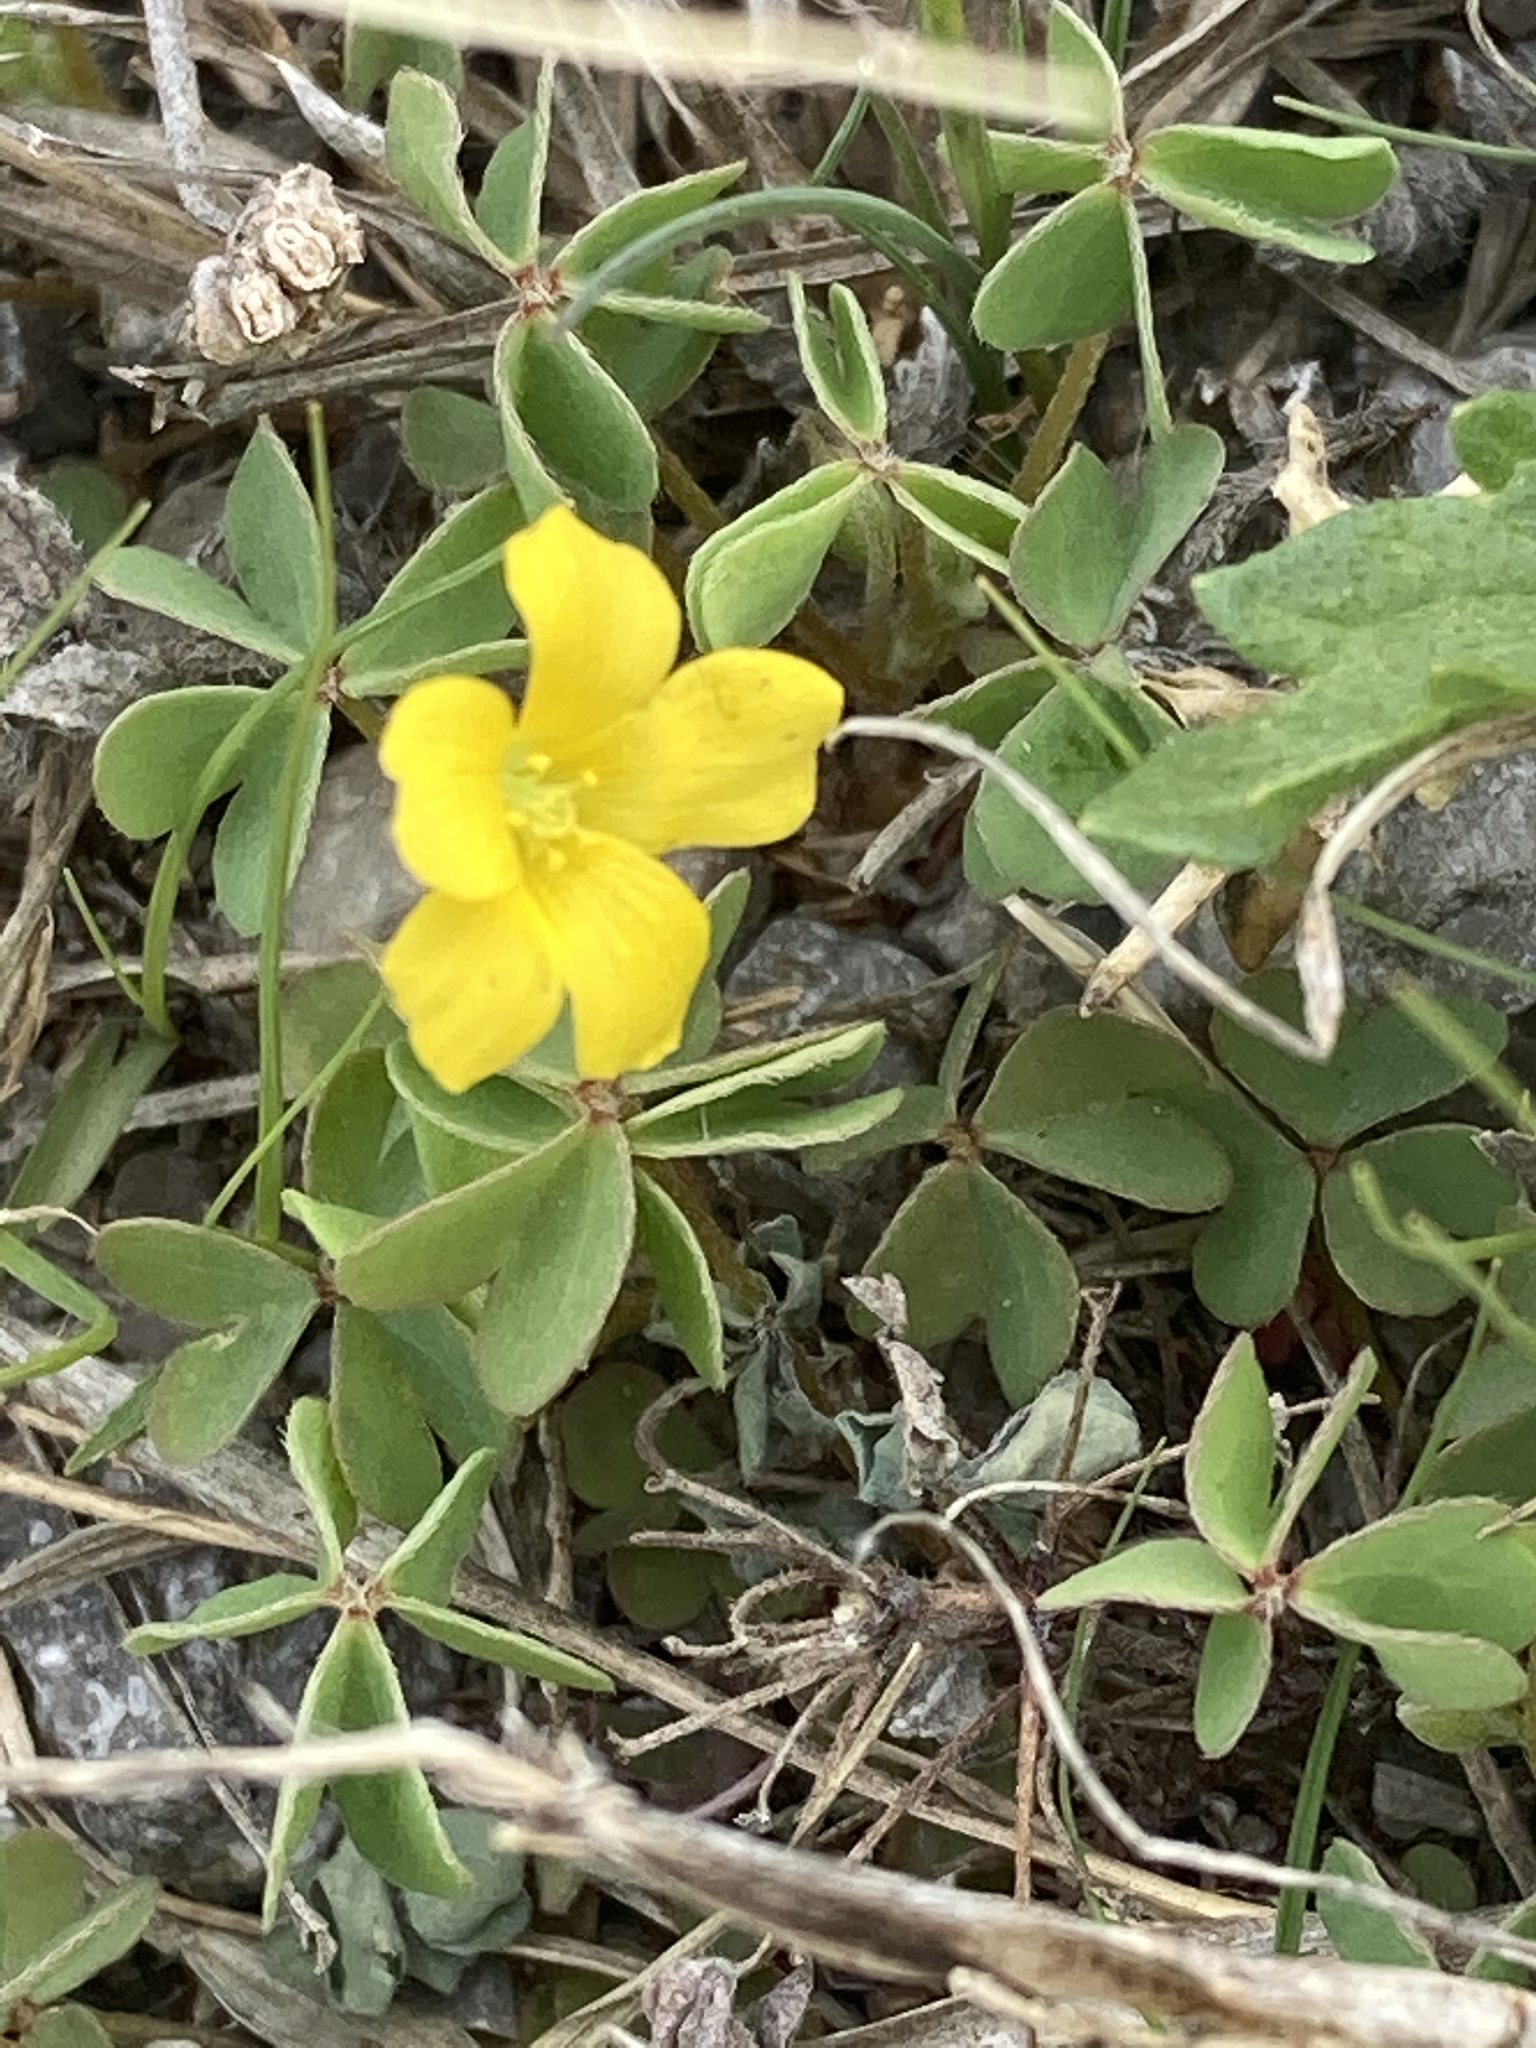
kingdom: Plantae
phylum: Tracheophyta
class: Magnoliopsida
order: Oxalidales
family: Oxalidaceae
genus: Oxalis
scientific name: Oxalis corniculata
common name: Procumbent yellow-sorrel
